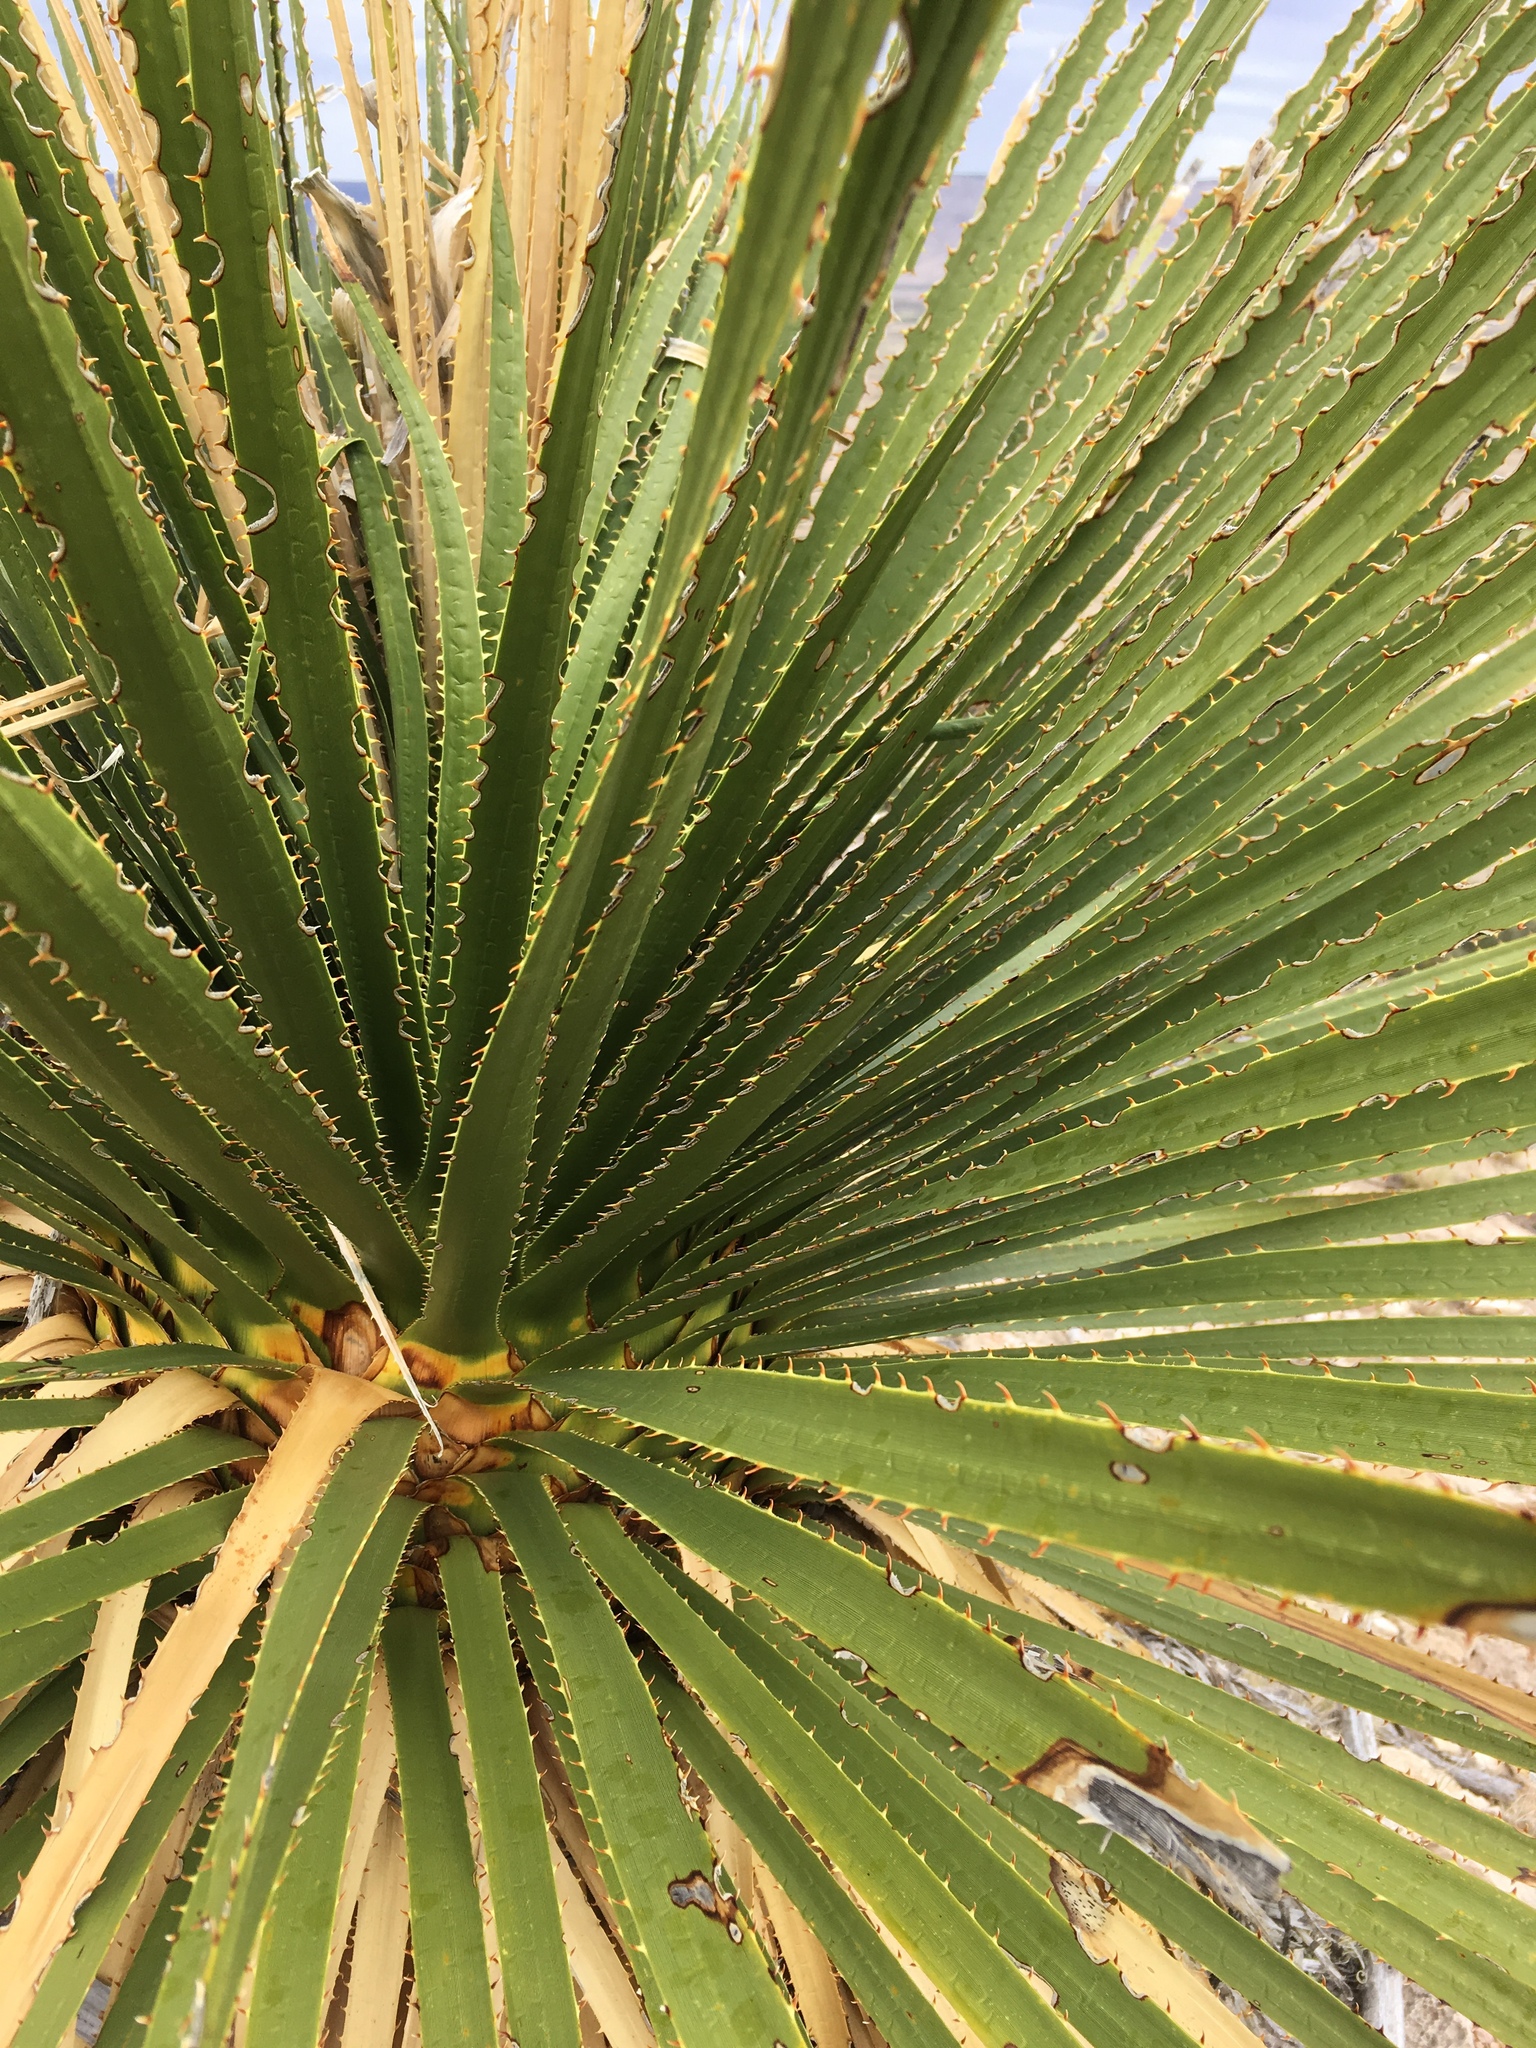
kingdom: Plantae
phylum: Tracheophyta
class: Liliopsida
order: Asparagales
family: Asparagaceae
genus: Dasylirion
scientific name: Dasylirion leiophyllum
